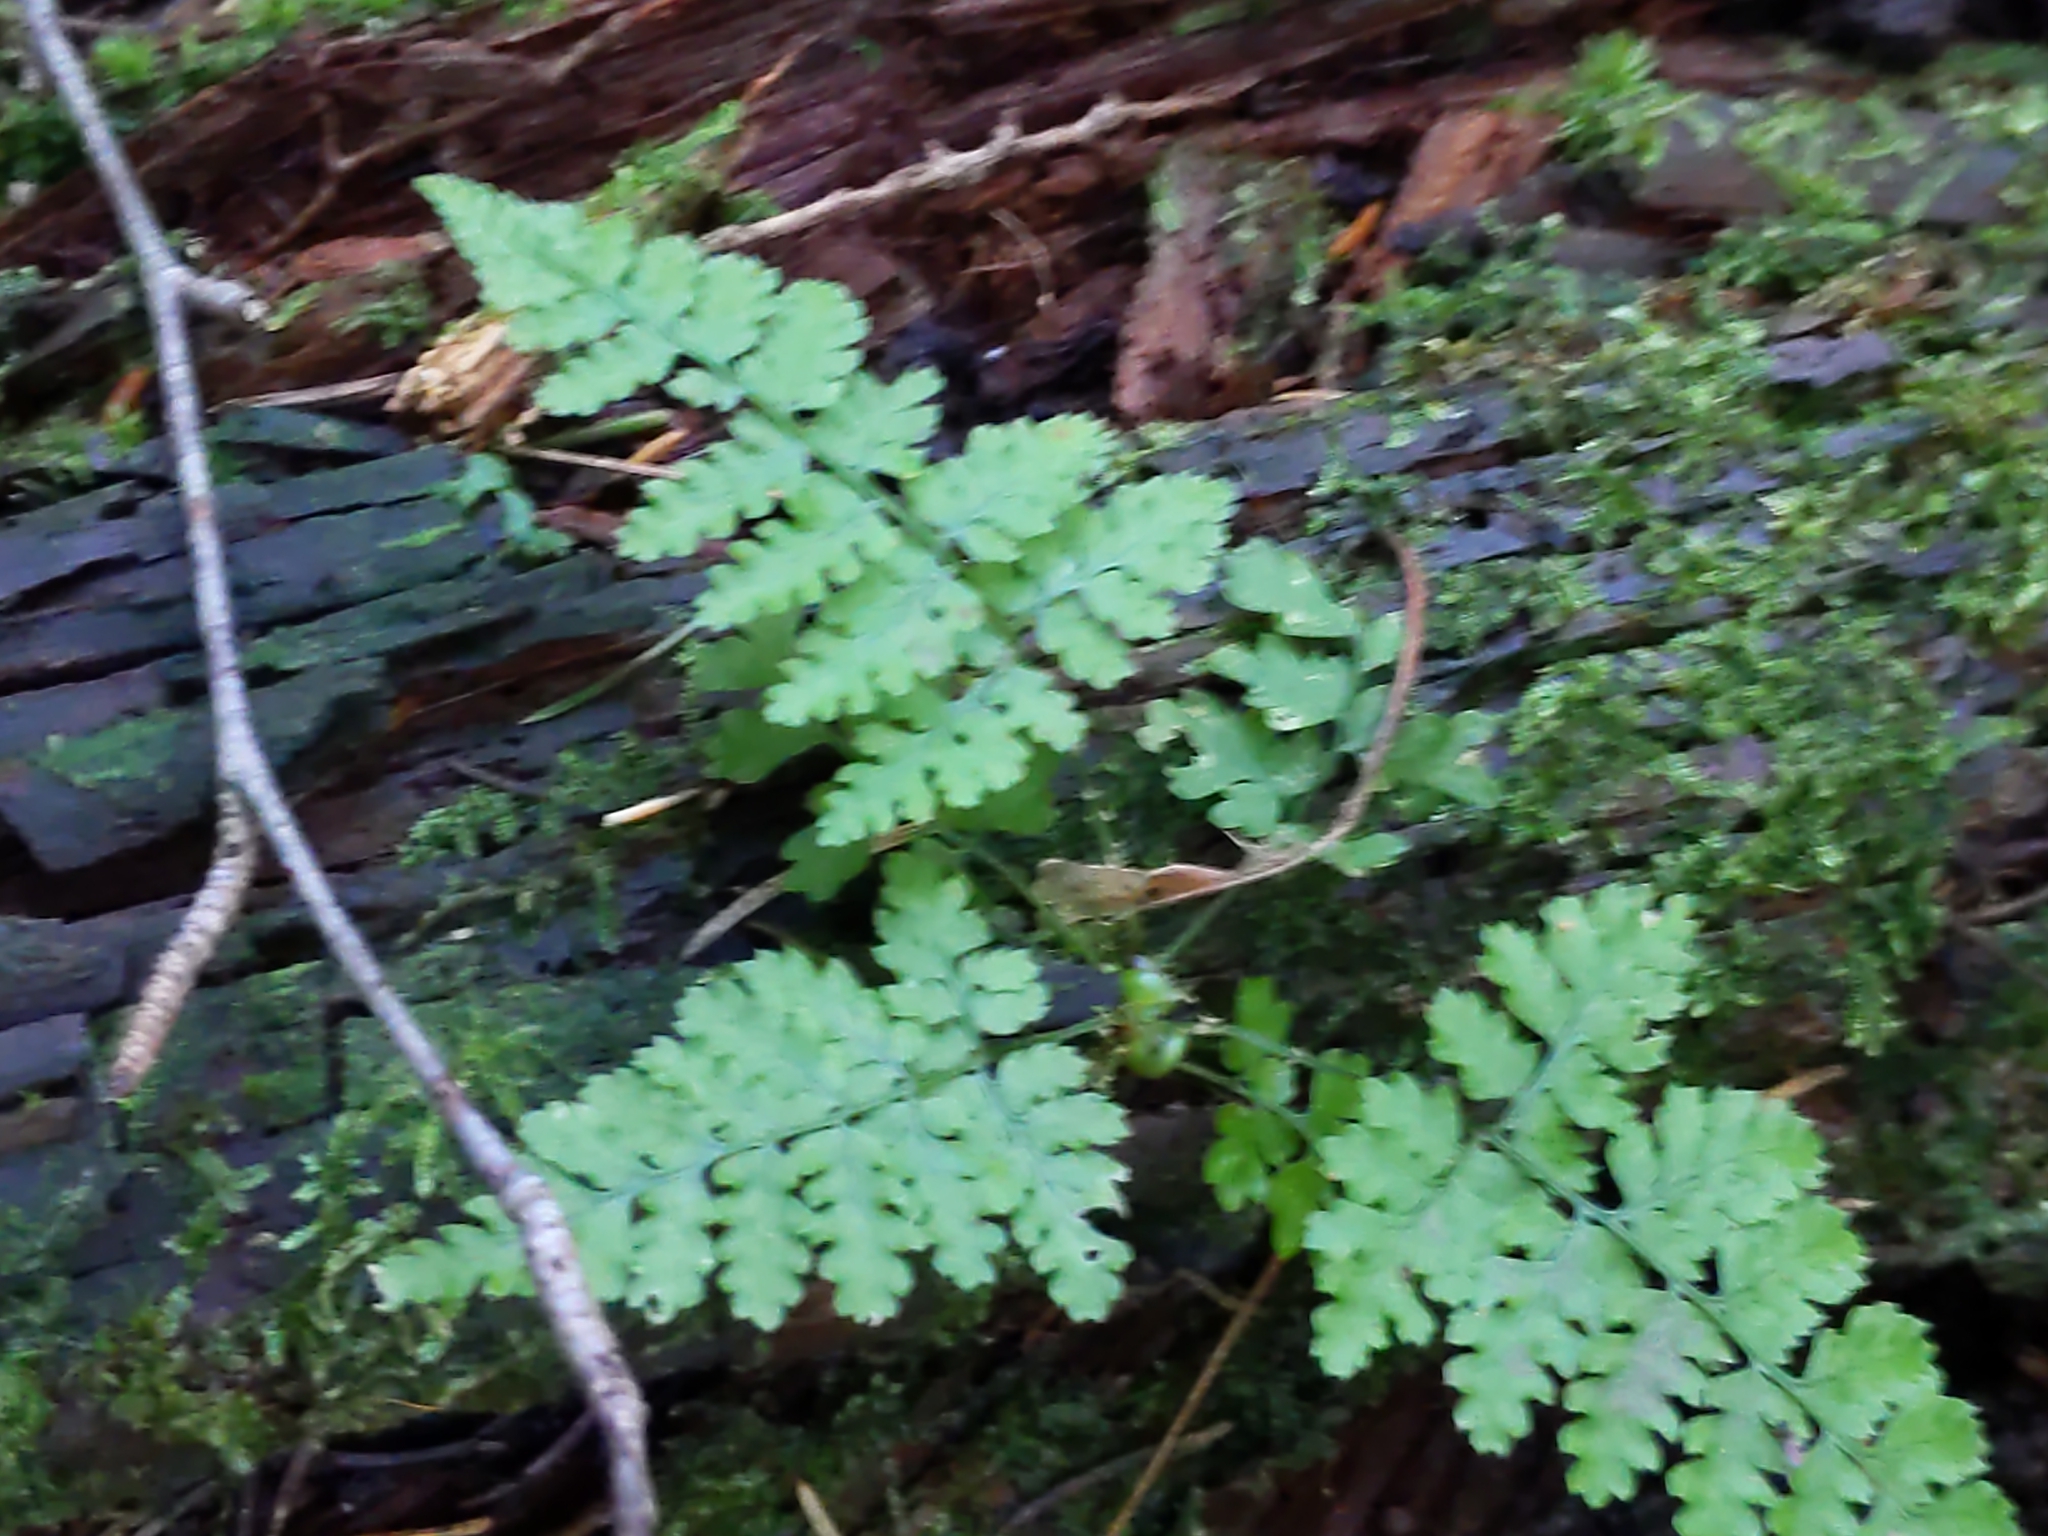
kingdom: Plantae
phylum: Tracheophyta
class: Polypodiopsida
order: Polypodiales
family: Dryopteridaceae
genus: Dryopteris
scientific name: Dryopteris intermedia
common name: Evergreen wood fern
